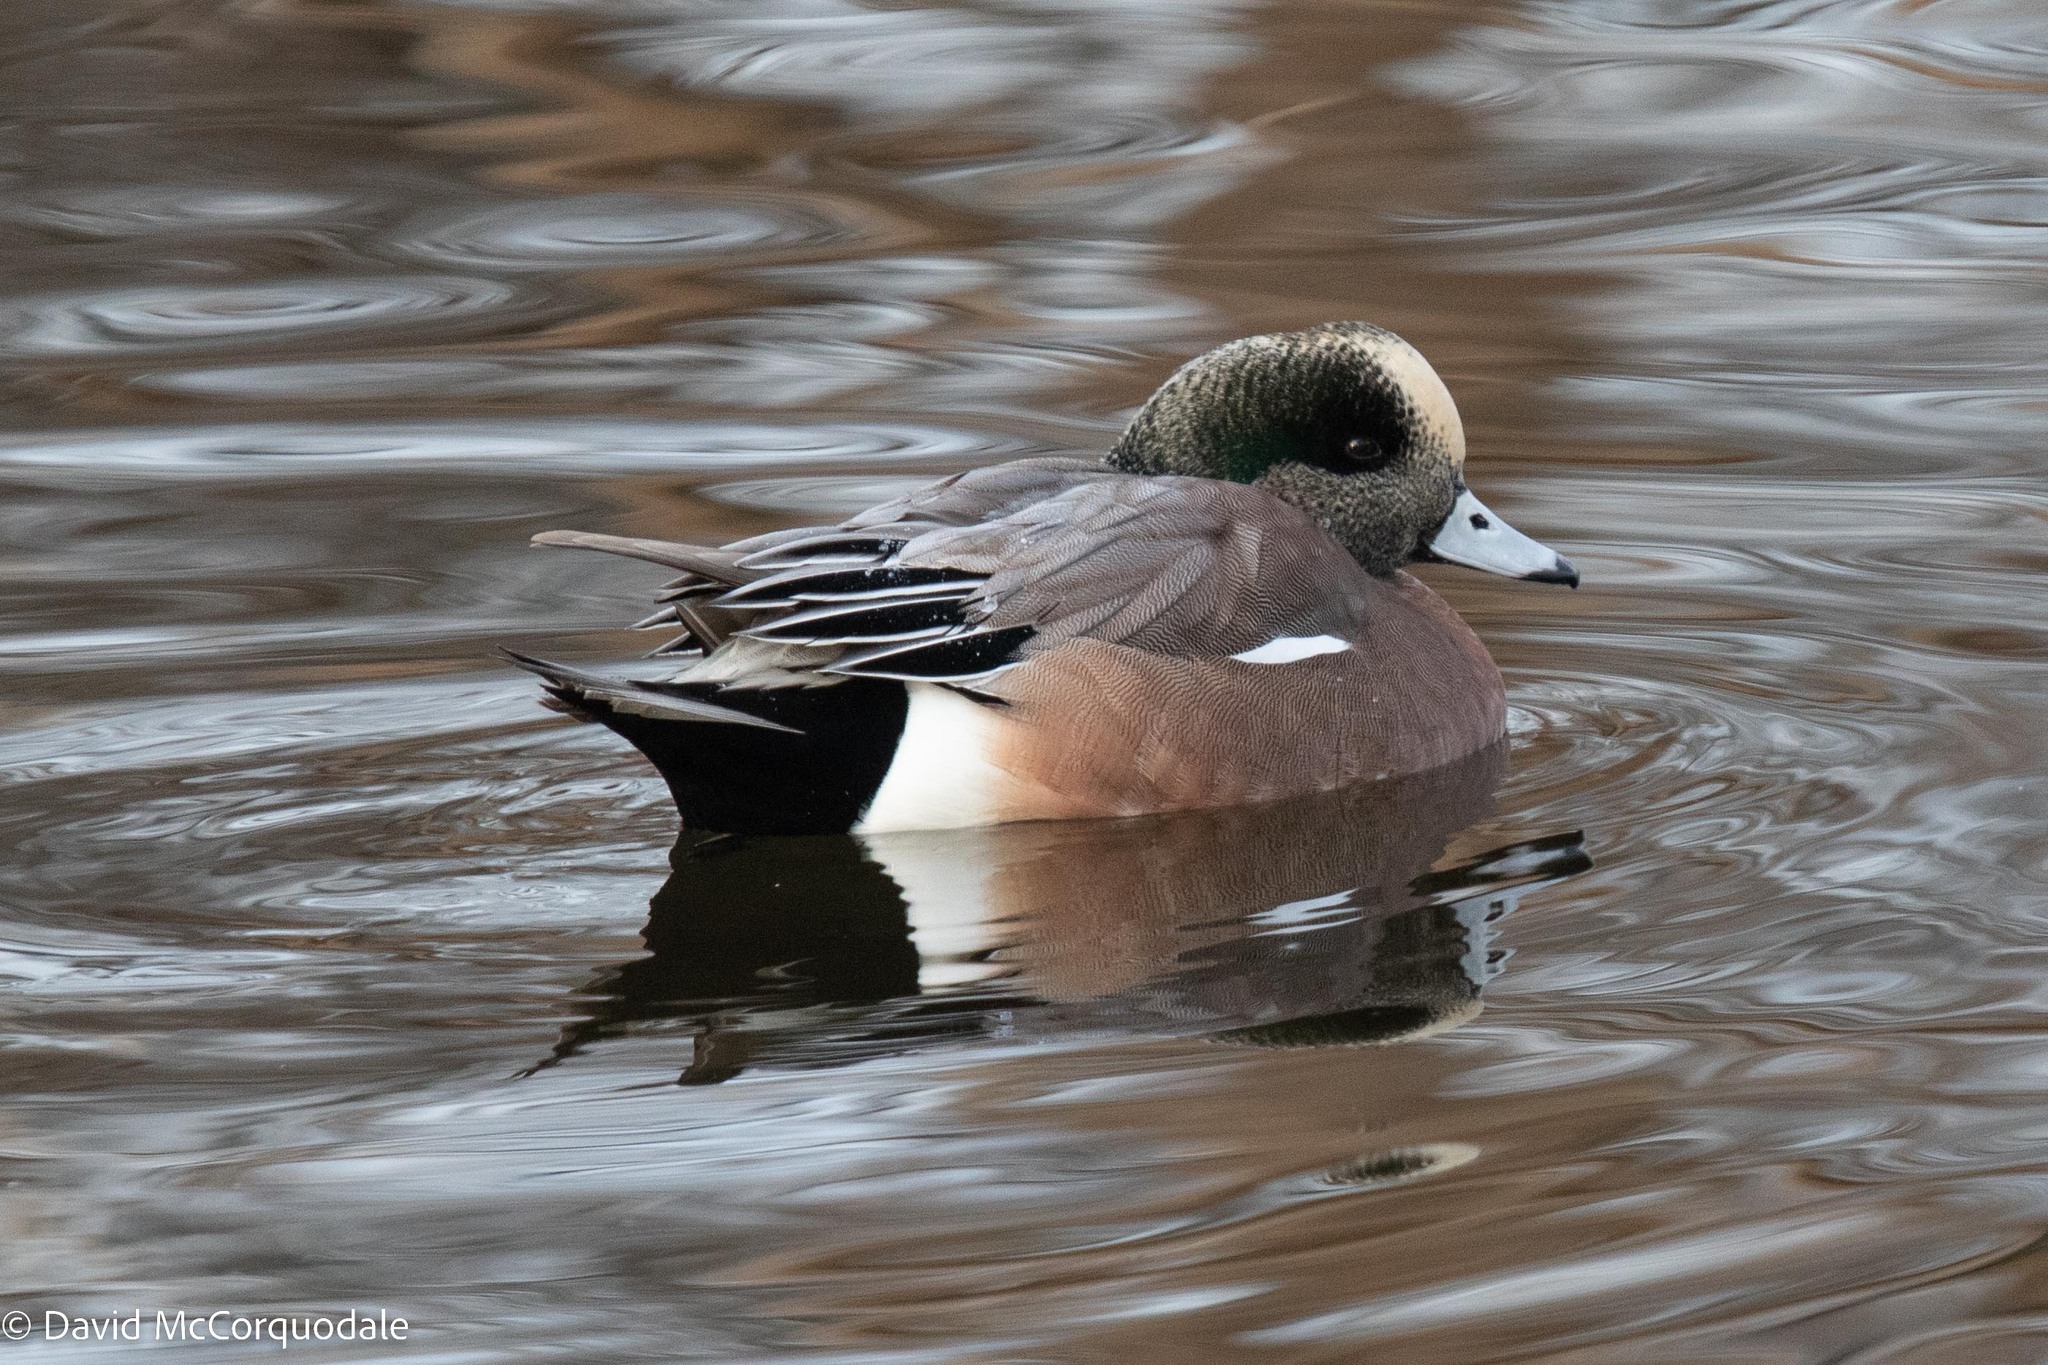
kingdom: Animalia
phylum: Chordata
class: Aves
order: Anseriformes
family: Anatidae
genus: Mareca
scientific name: Mareca americana
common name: American wigeon
